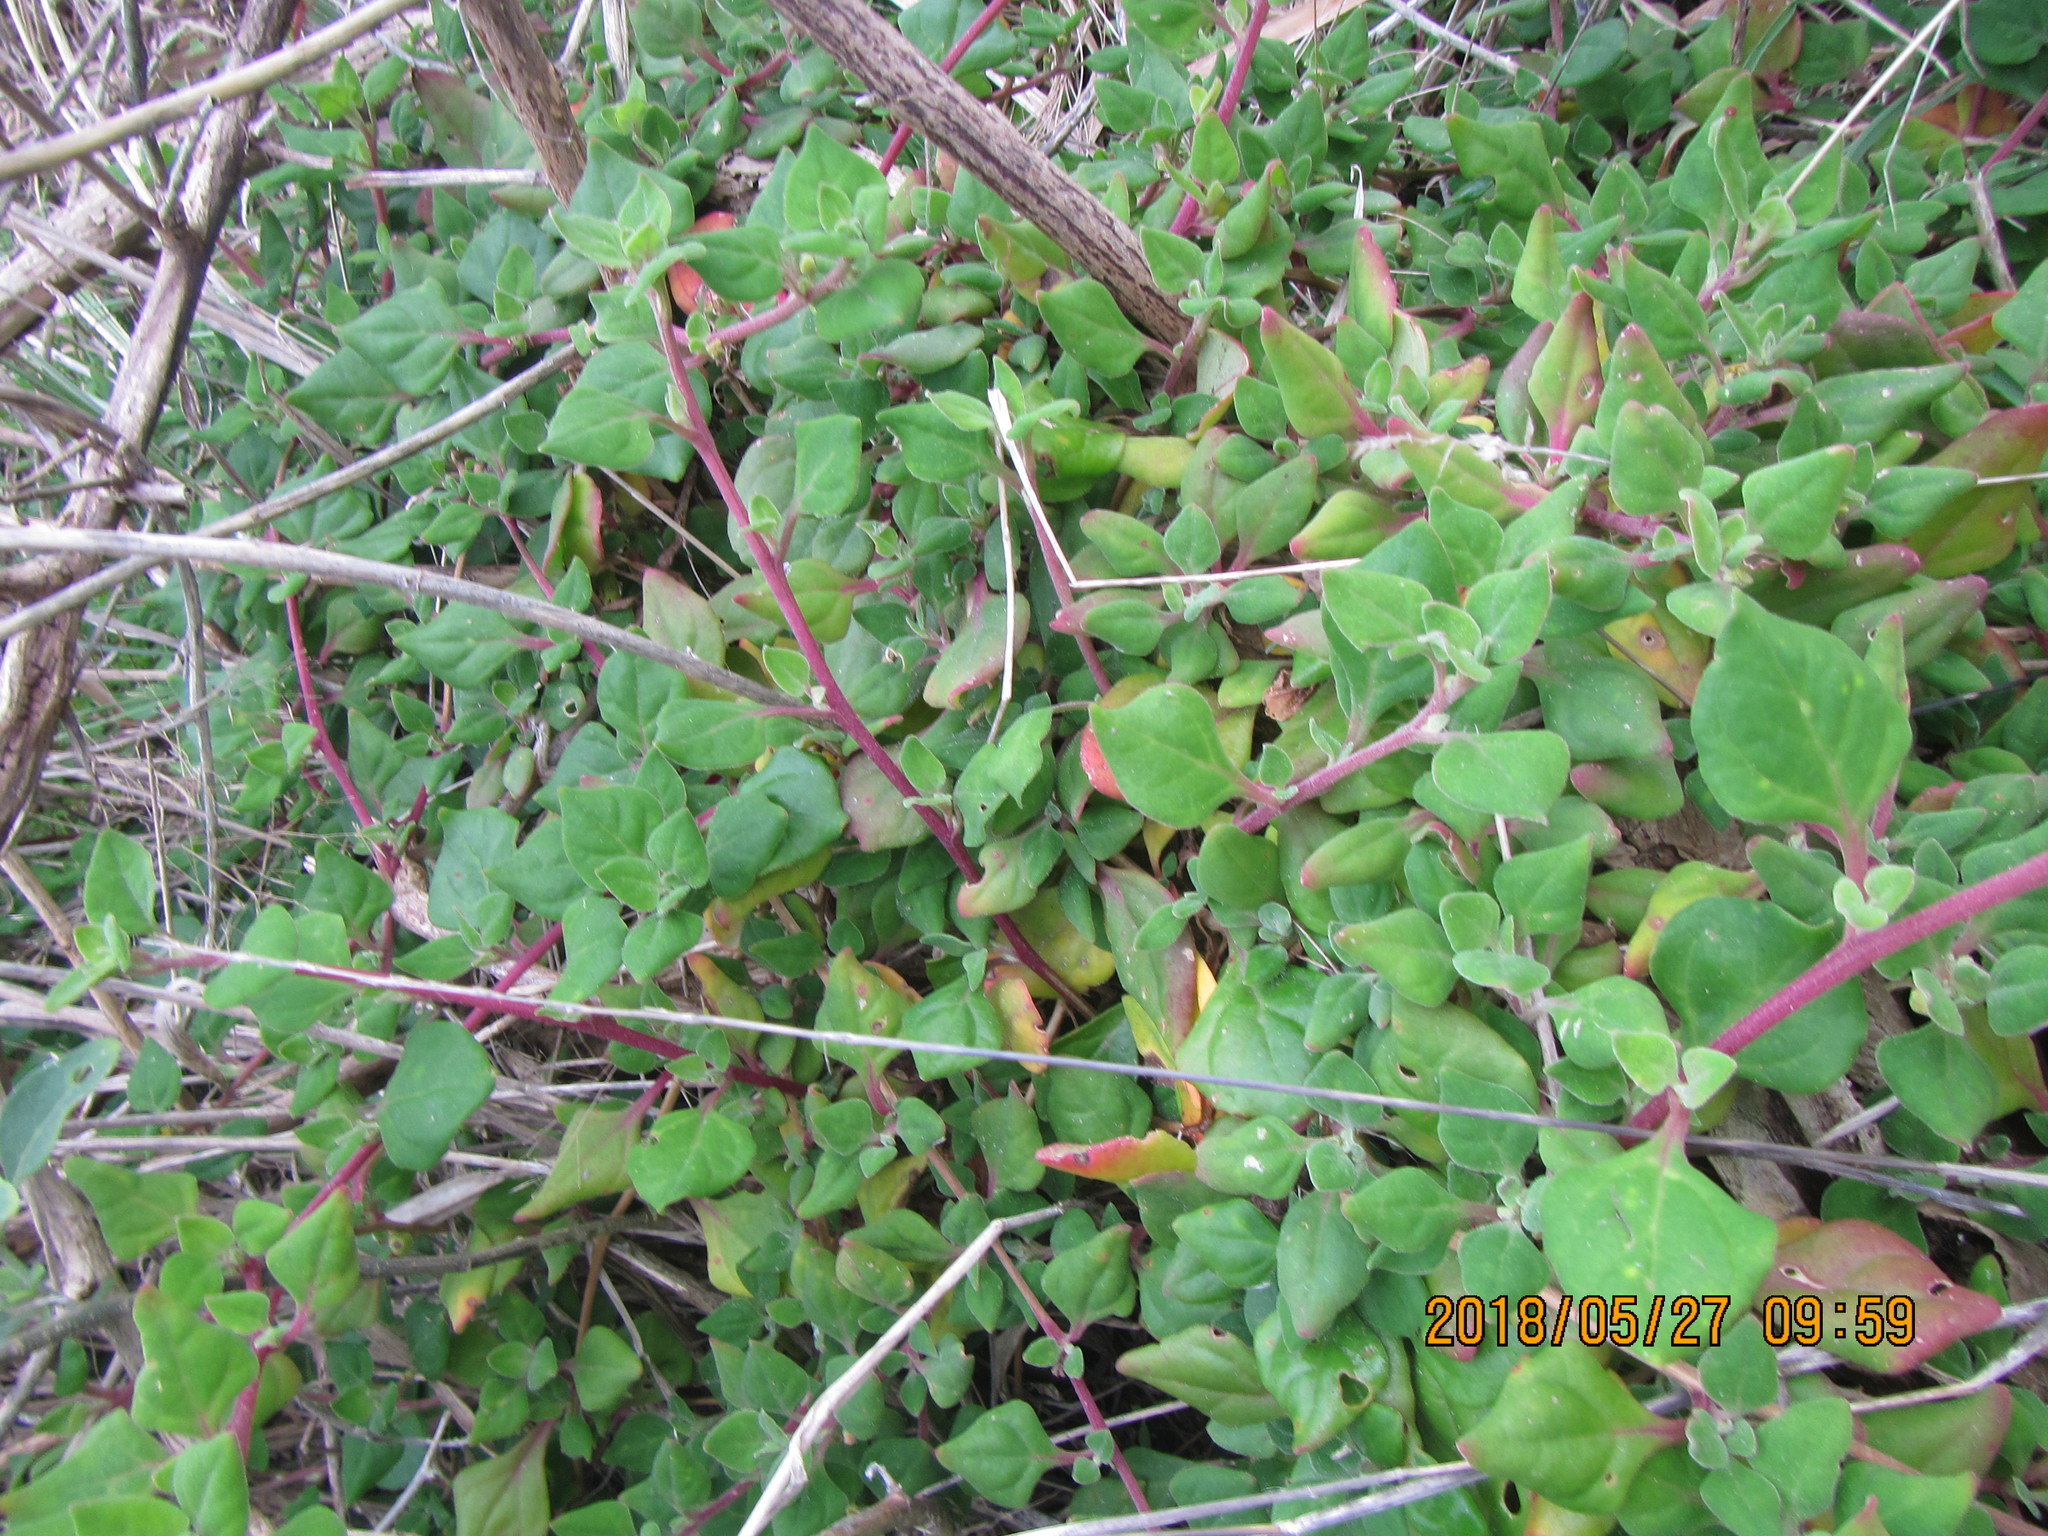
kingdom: Plantae
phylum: Tracheophyta
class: Magnoliopsida
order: Caryophyllales
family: Aizoaceae
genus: Tetragonia
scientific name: Tetragonia implexicoma
